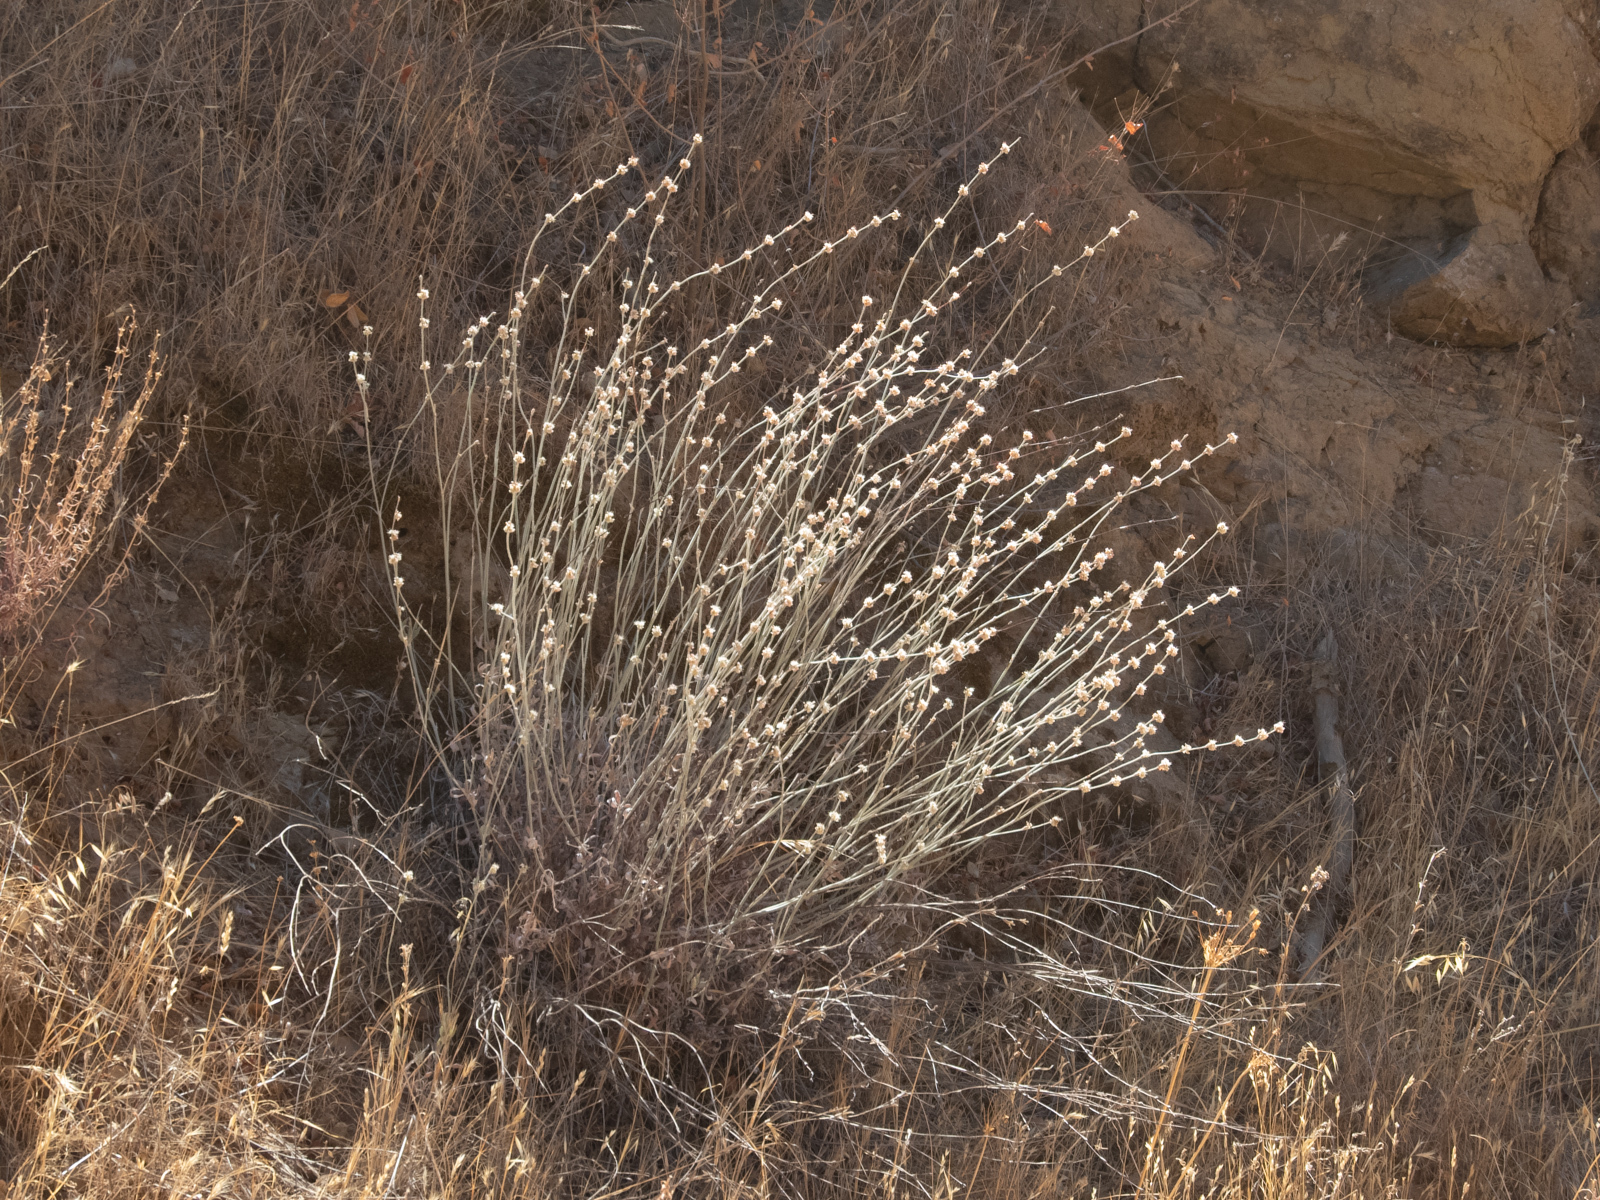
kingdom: Plantae
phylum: Tracheophyta
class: Magnoliopsida
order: Caryophyllales
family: Polygonaceae
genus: Eriogonum
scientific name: Eriogonum elongatum
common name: Long-stem wild buckwheat
